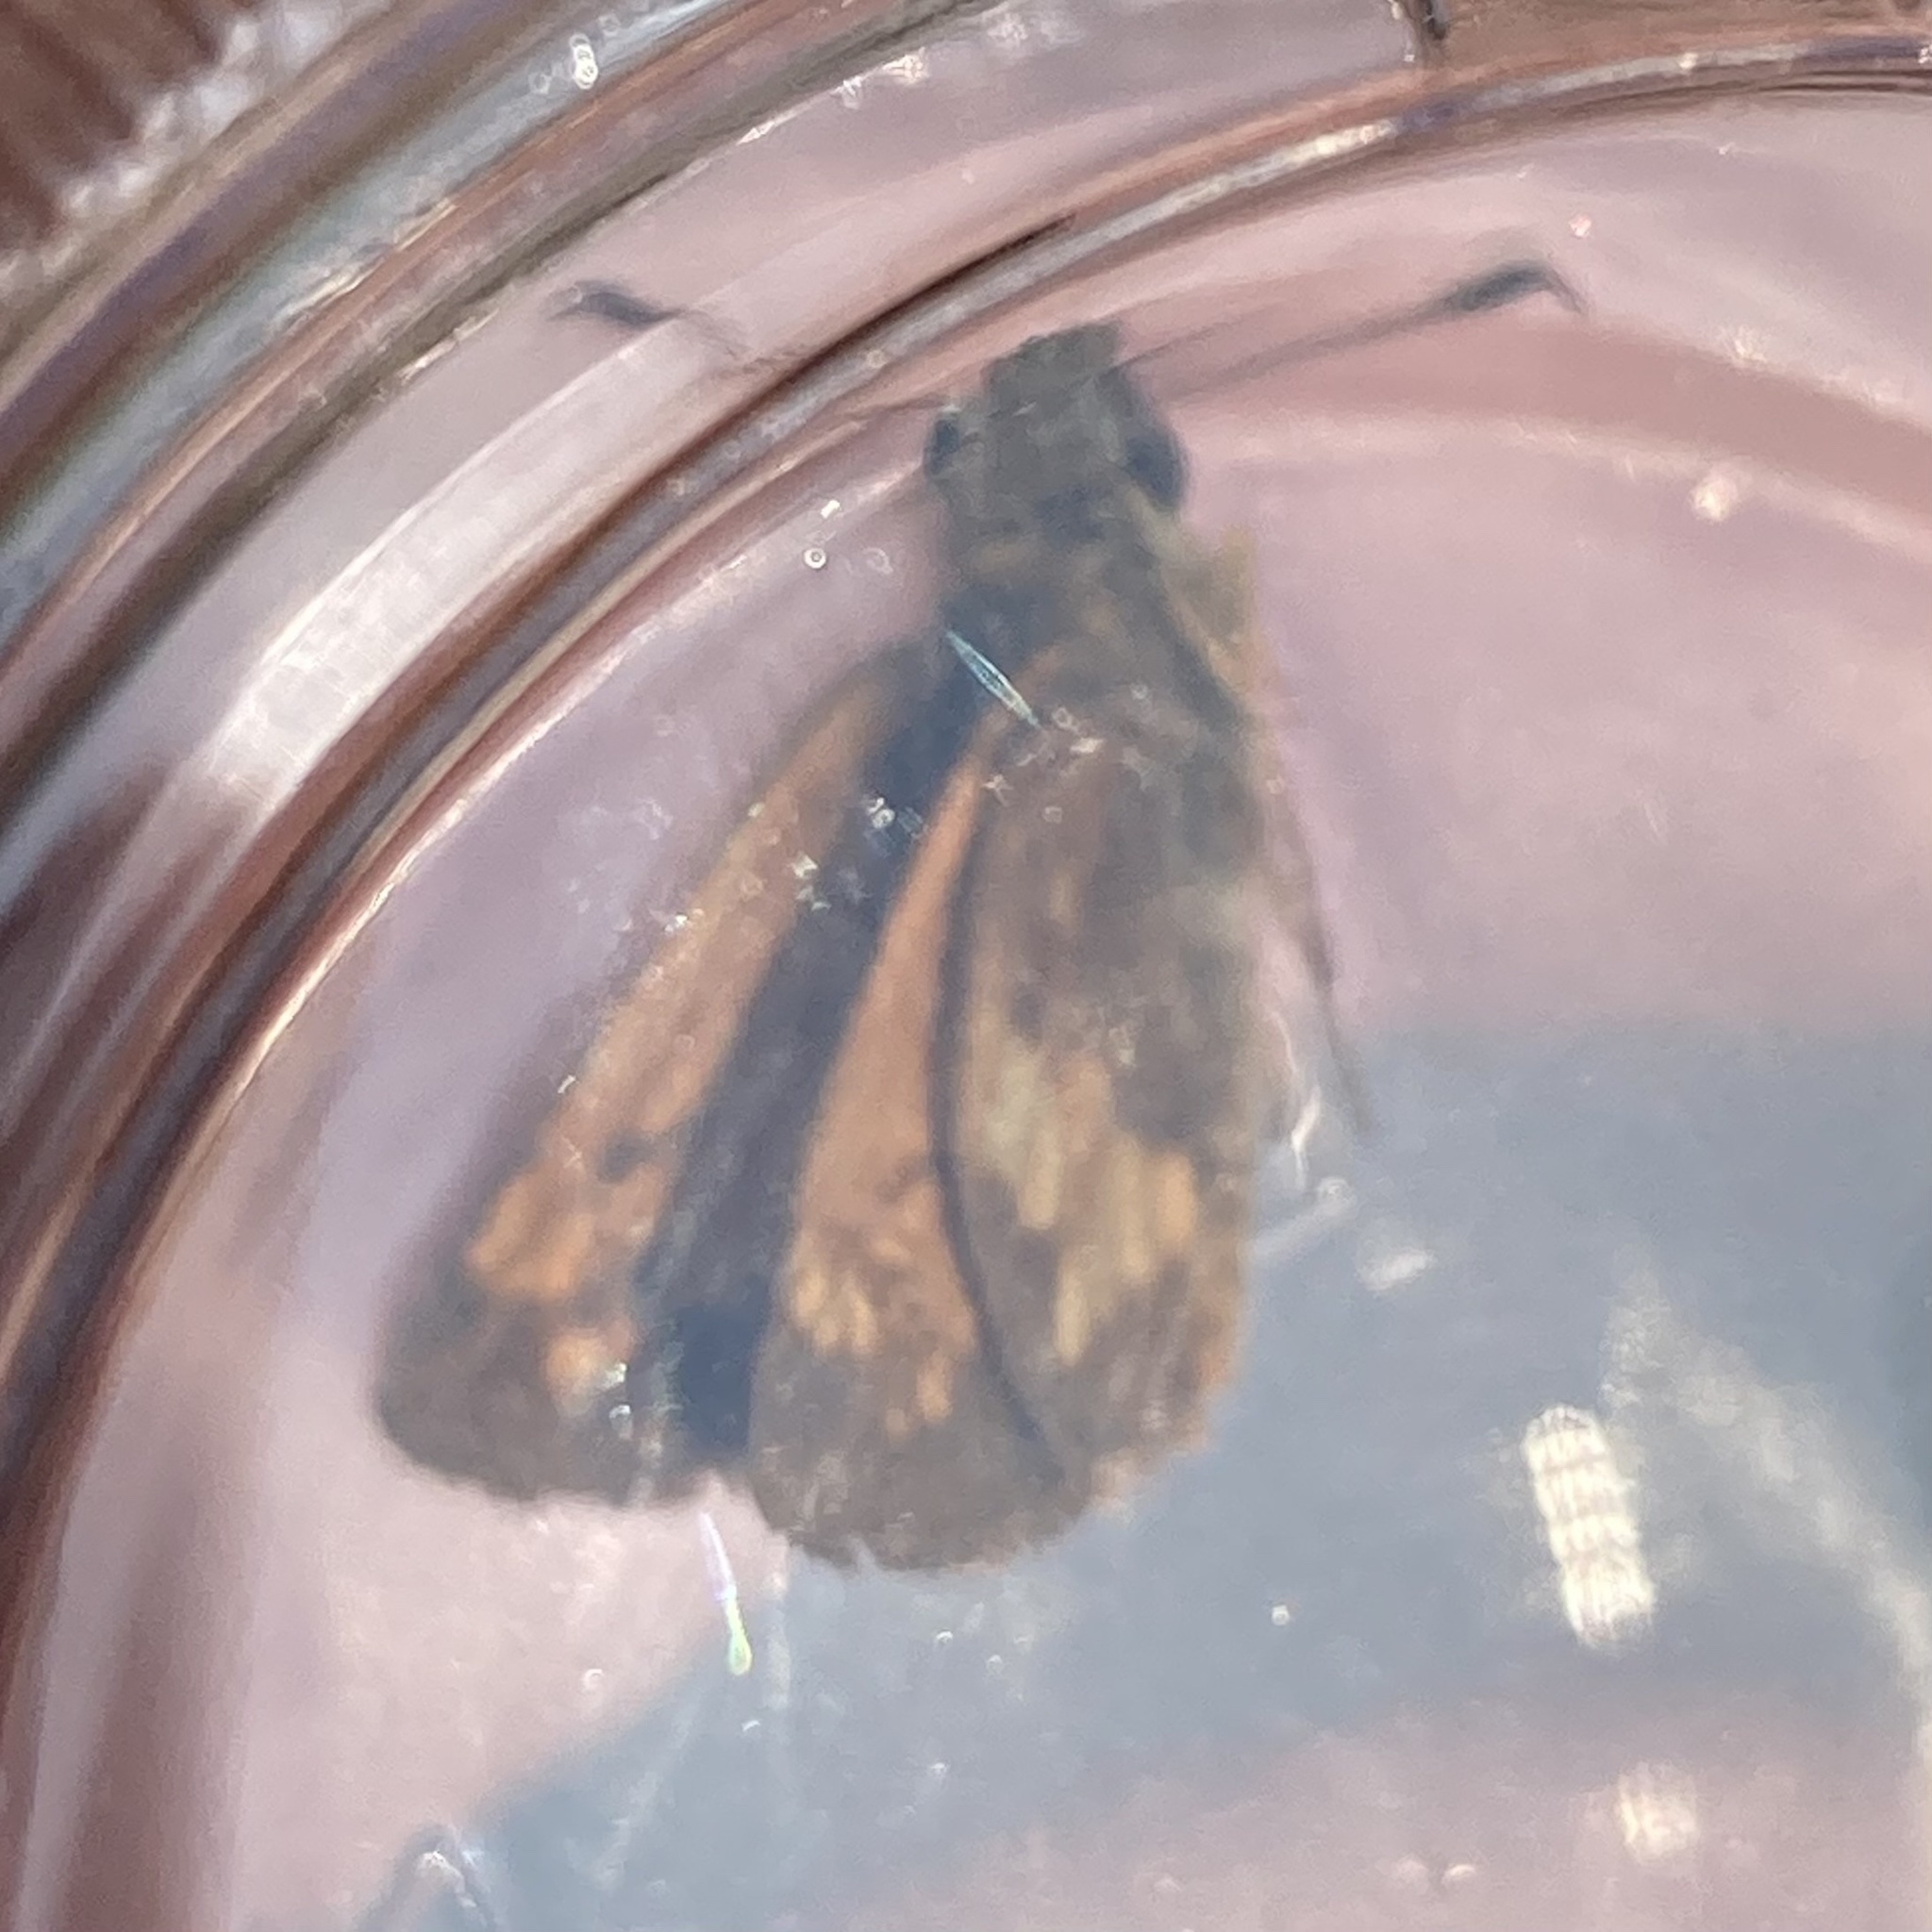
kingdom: Animalia
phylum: Arthropoda
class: Insecta
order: Lepidoptera
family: Hesperiidae
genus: Lon
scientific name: Lon hobomok
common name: Hobomok skipper
